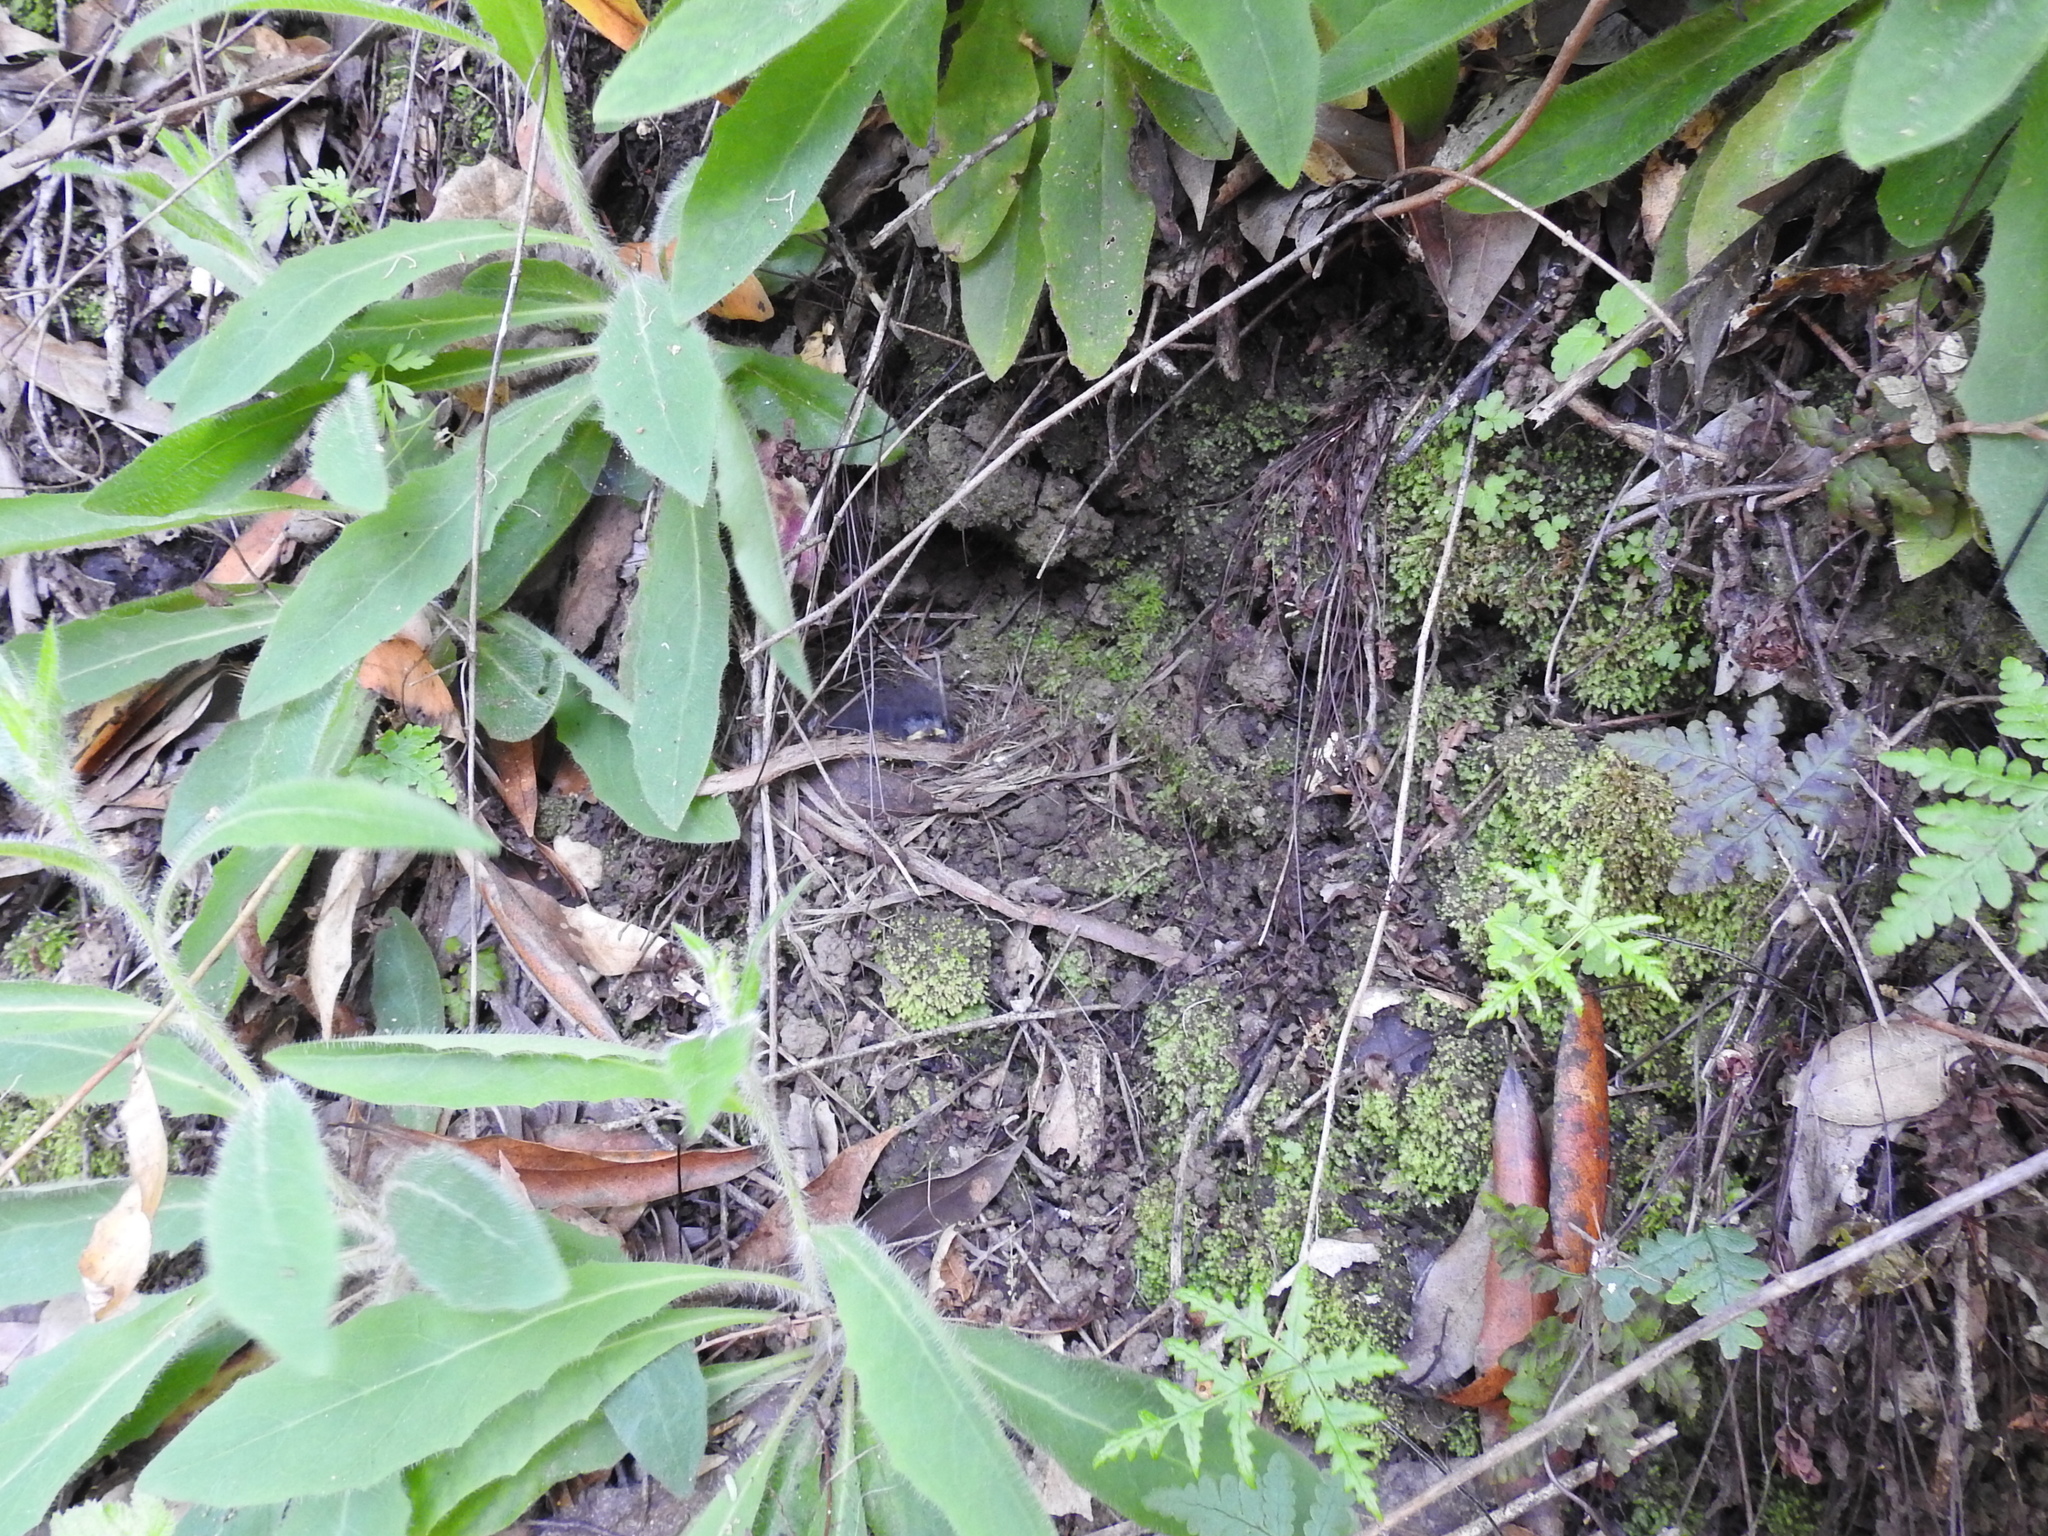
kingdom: Animalia
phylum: Chordata
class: Aves
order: Passeriformes
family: Passerellidae
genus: Junco
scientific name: Junco hyemalis
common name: Dark-eyed junco
